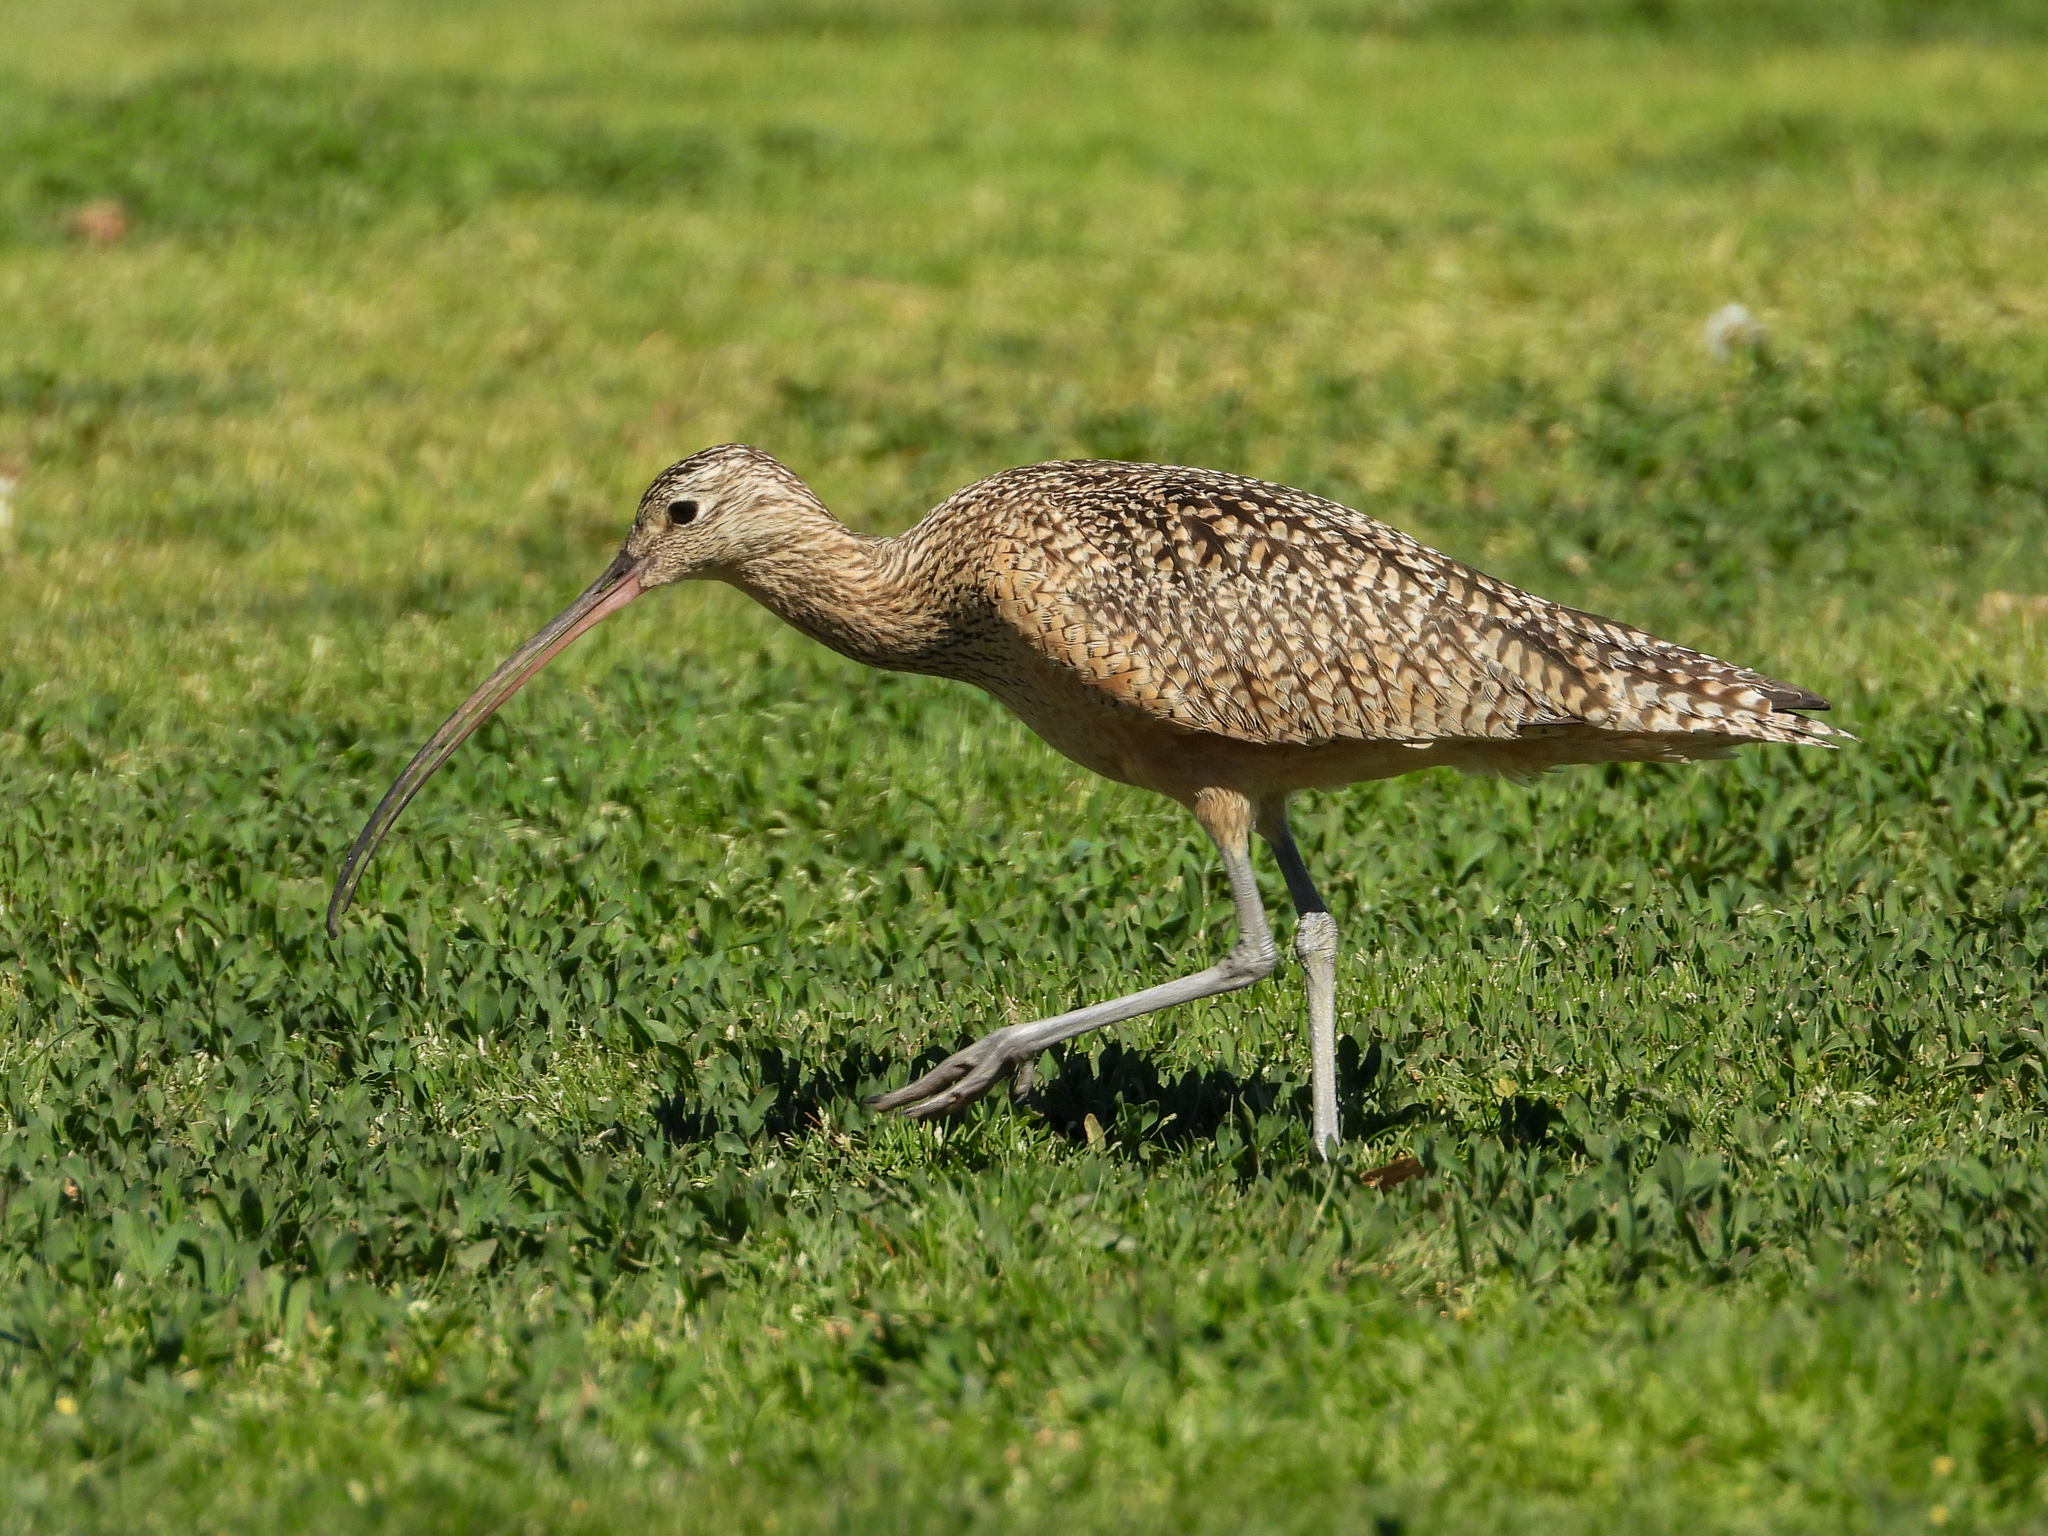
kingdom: Animalia
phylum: Chordata
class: Aves
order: Charadriiformes
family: Scolopacidae
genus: Numenius
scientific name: Numenius americanus
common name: Long-billed curlew
